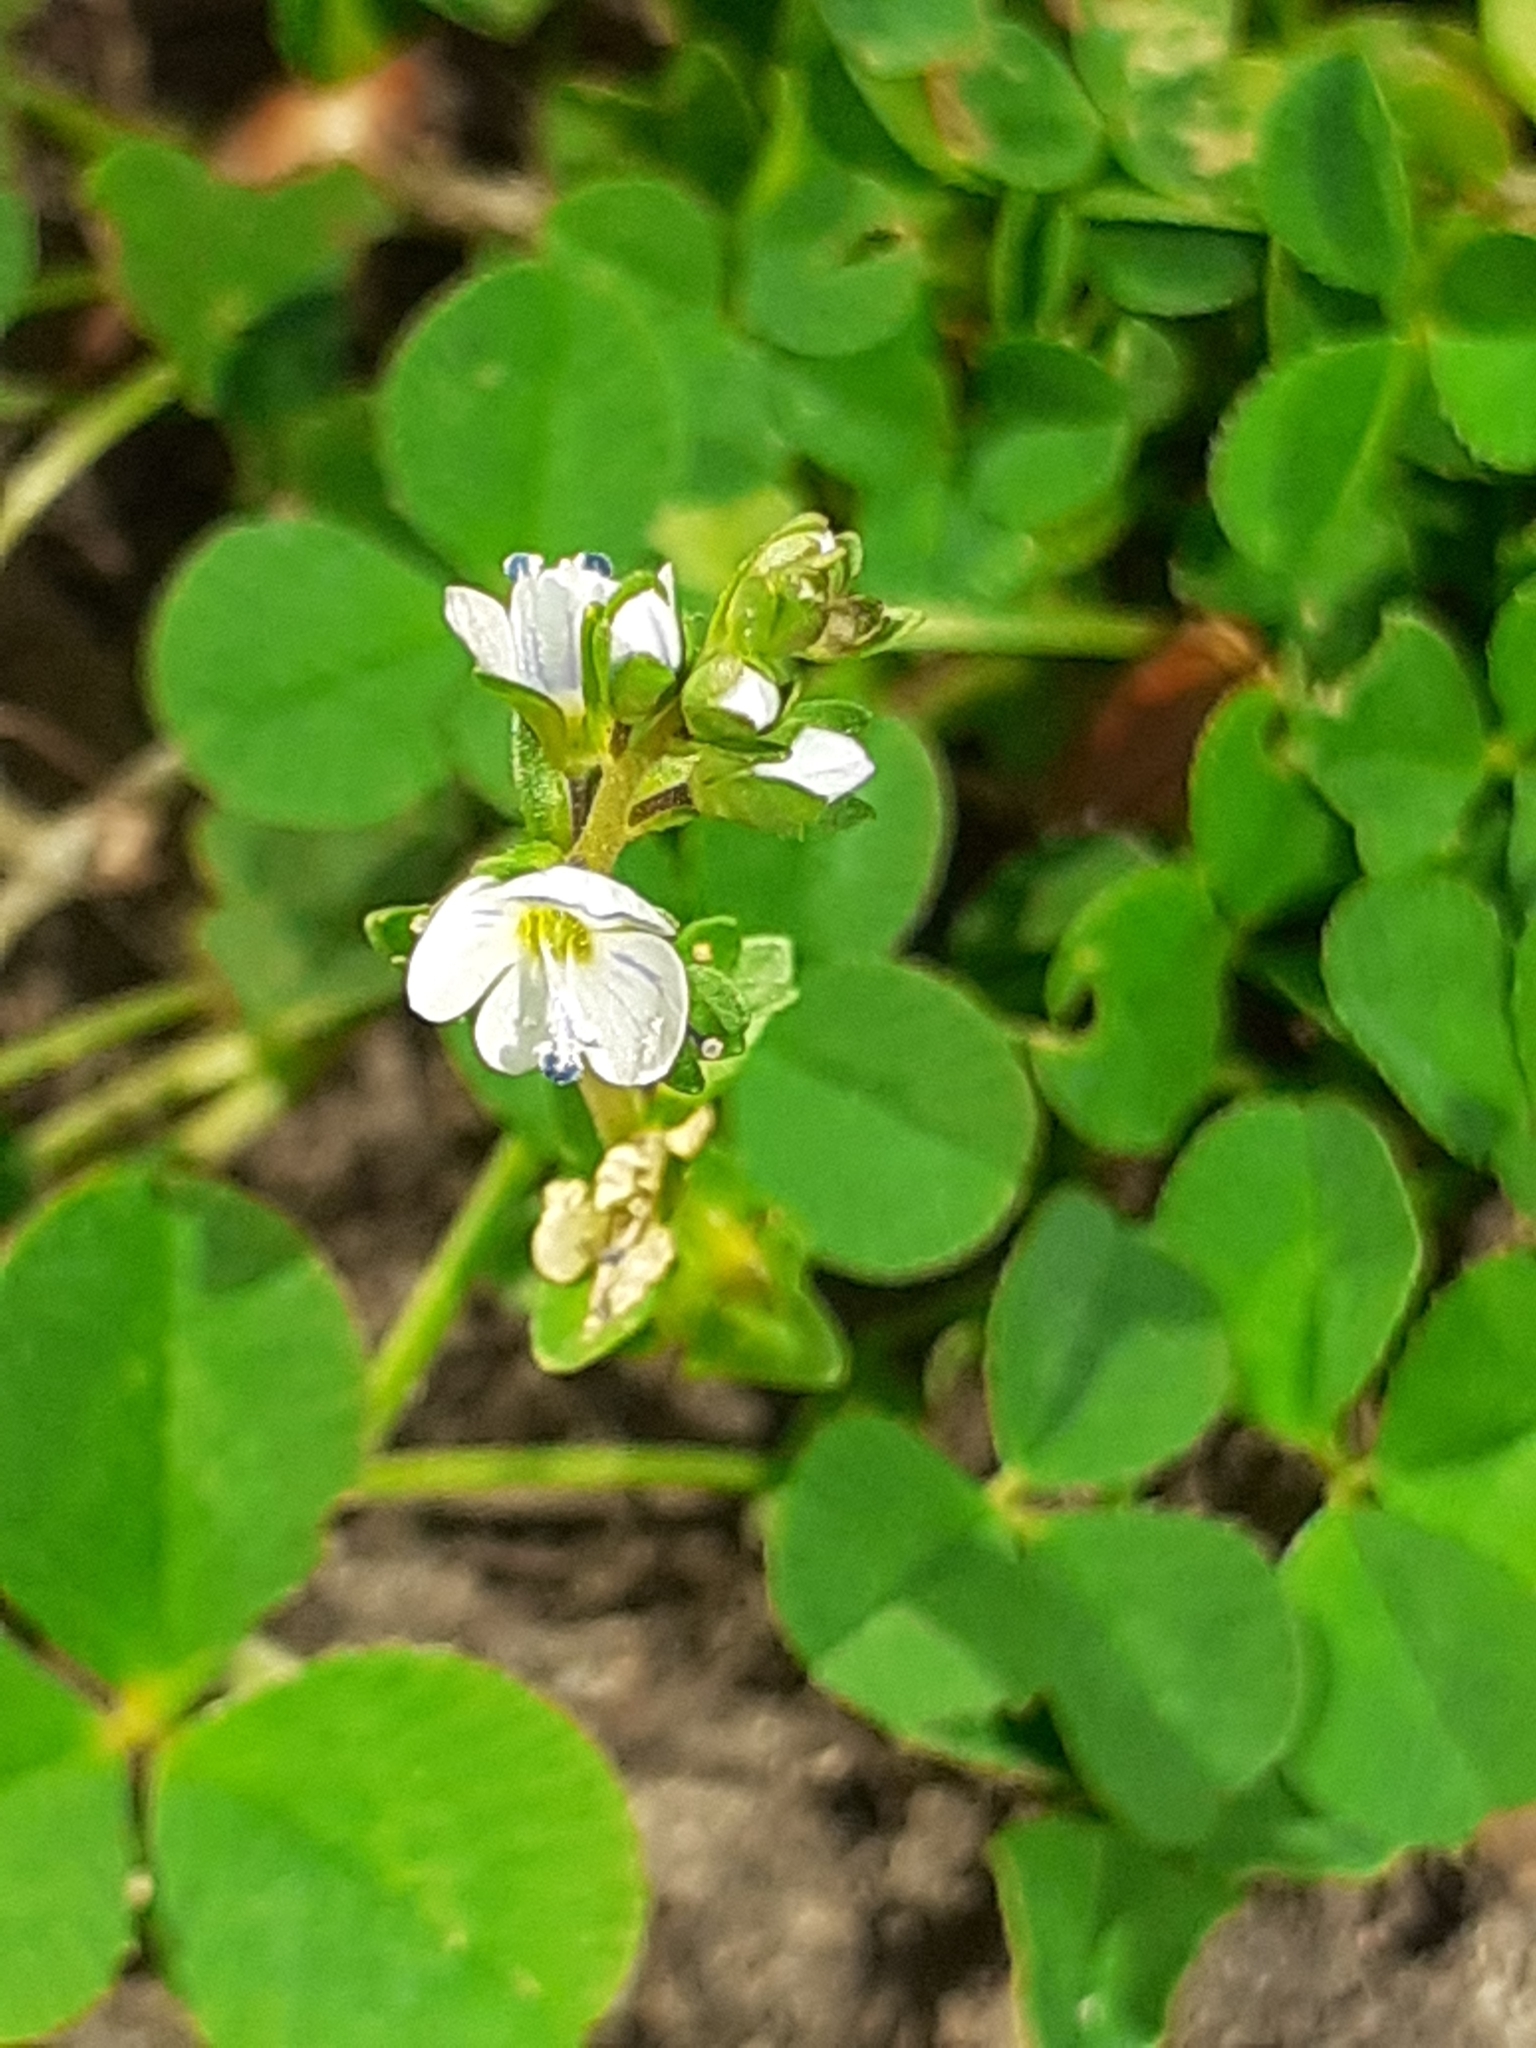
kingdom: Plantae
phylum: Tracheophyta
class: Magnoliopsida
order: Lamiales
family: Plantaginaceae
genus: Veronica
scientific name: Veronica serpyllifolia
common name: Thyme-leaved speedwell
